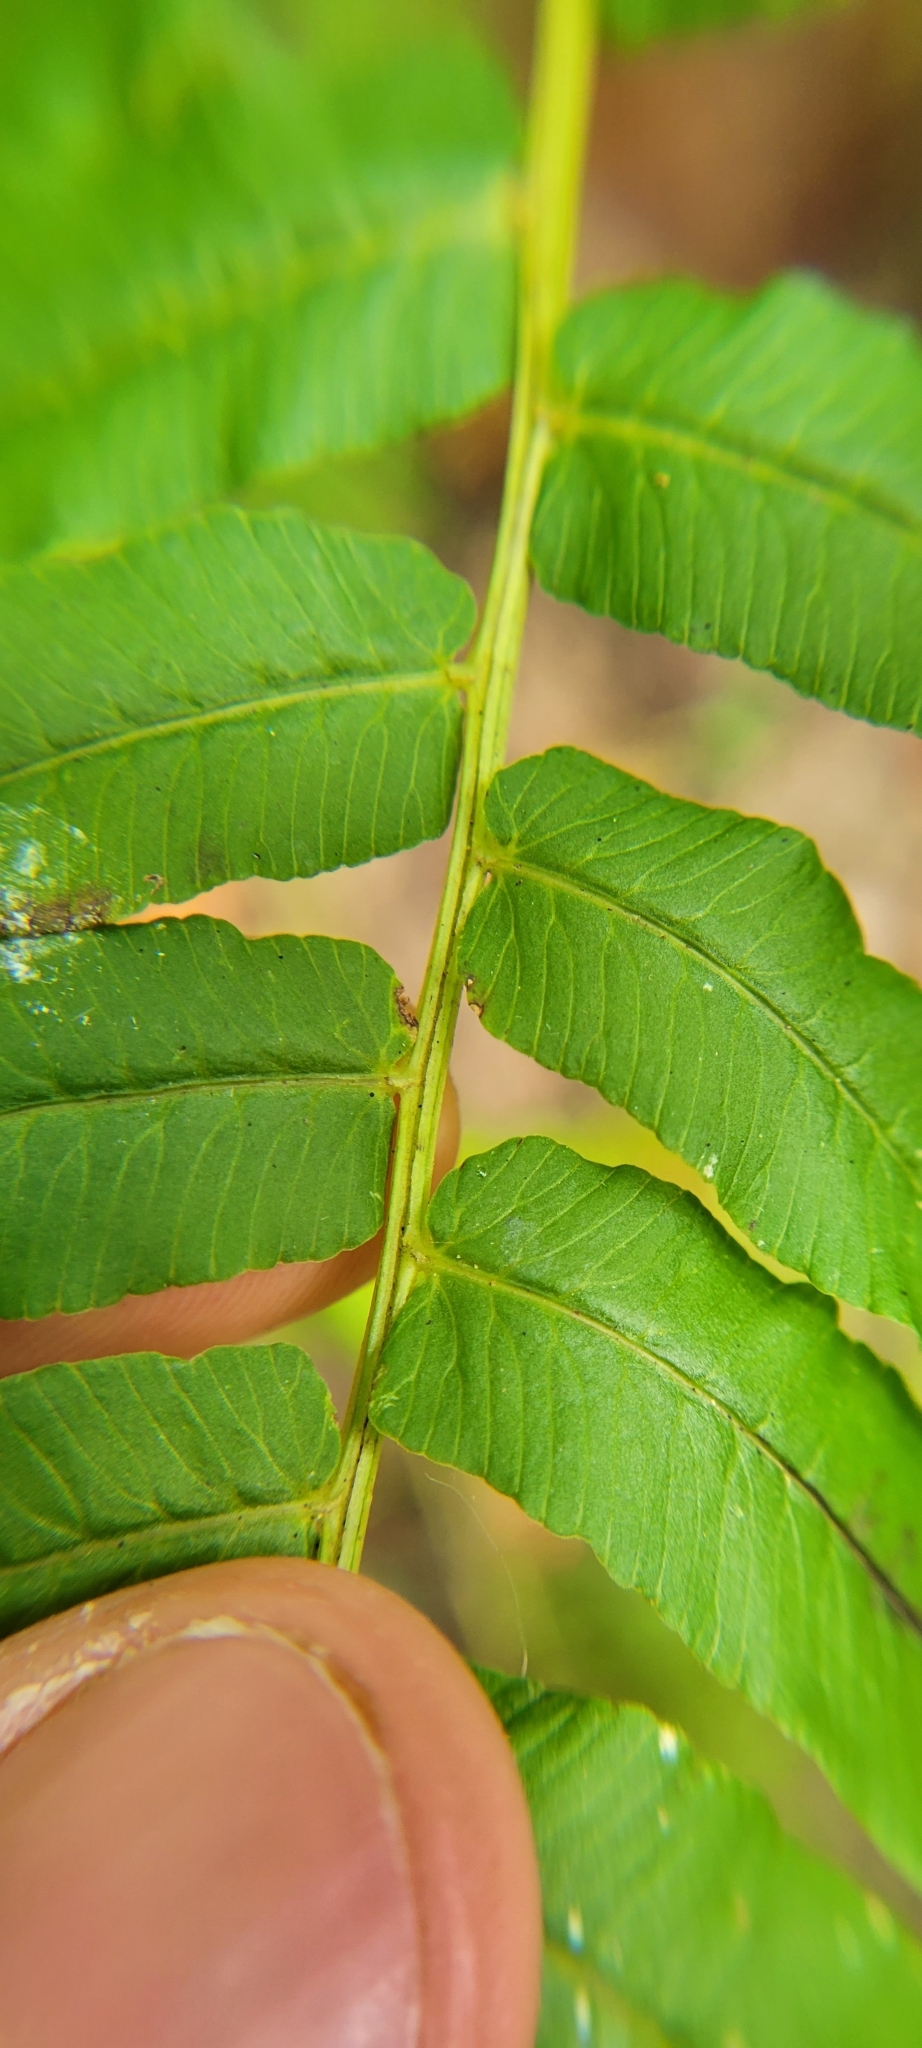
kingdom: Plantae
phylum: Tracheophyta
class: Polypodiopsida
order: Polypodiales
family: Diplaziopsidaceae
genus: Homalosorus
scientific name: Homalosorus pycnocarpos
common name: Glade fern
